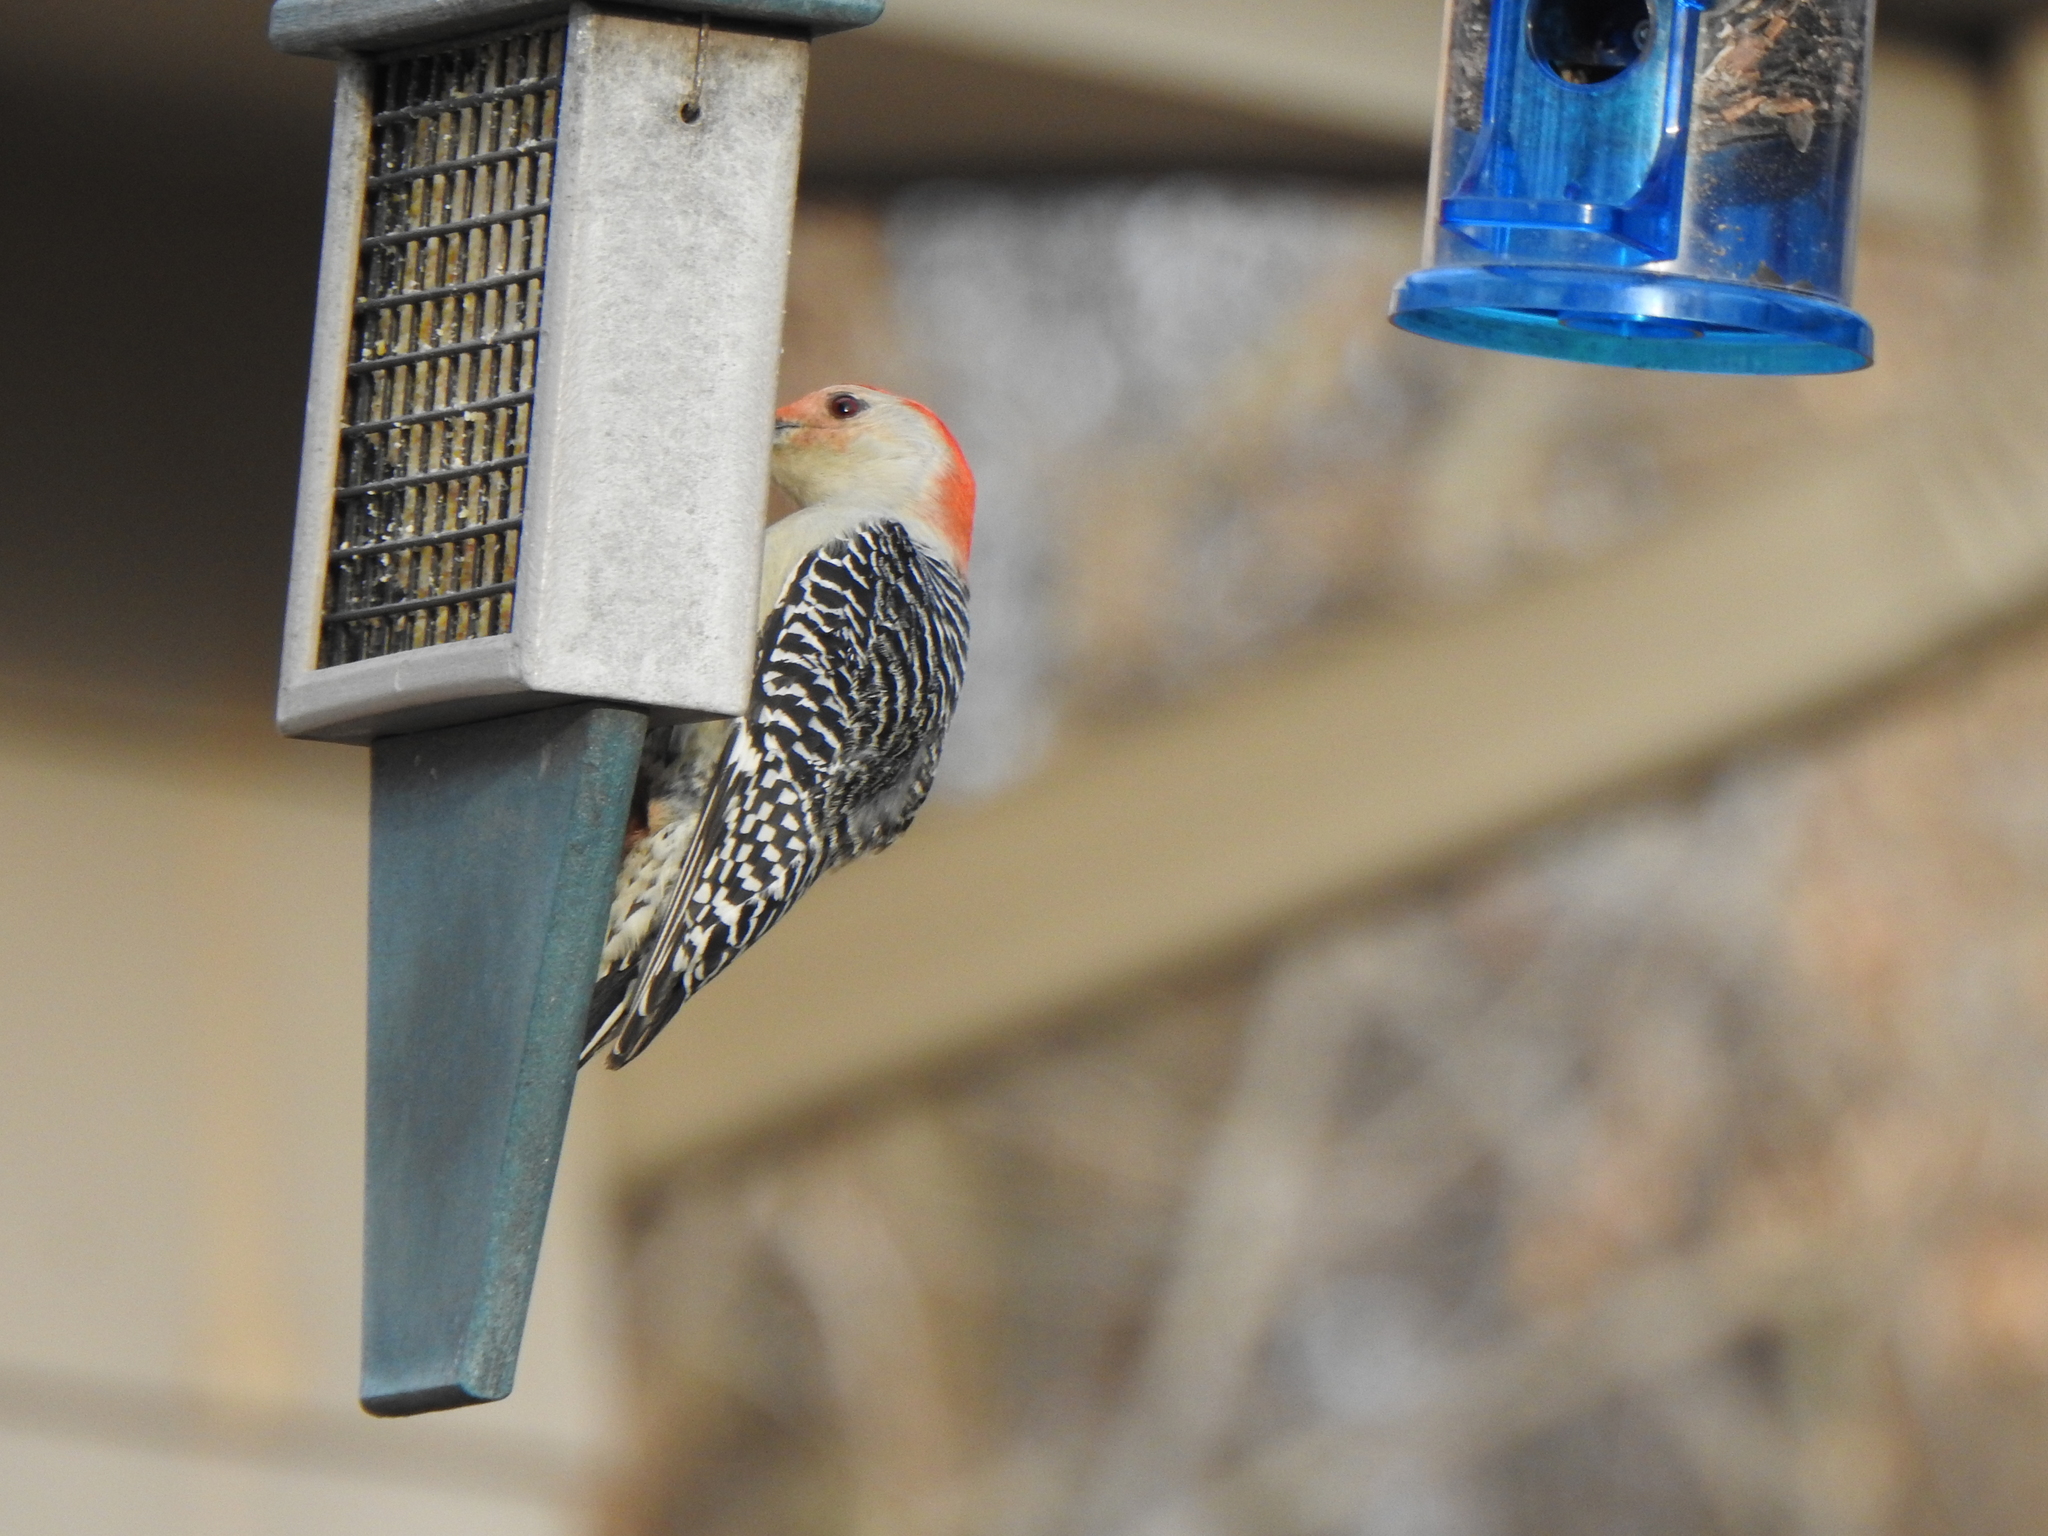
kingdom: Animalia
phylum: Chordata
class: Aves
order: Piciformes
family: Picidae
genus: Melanerpes
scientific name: Melanerpes carolinus
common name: Red-bellied woodpecker
